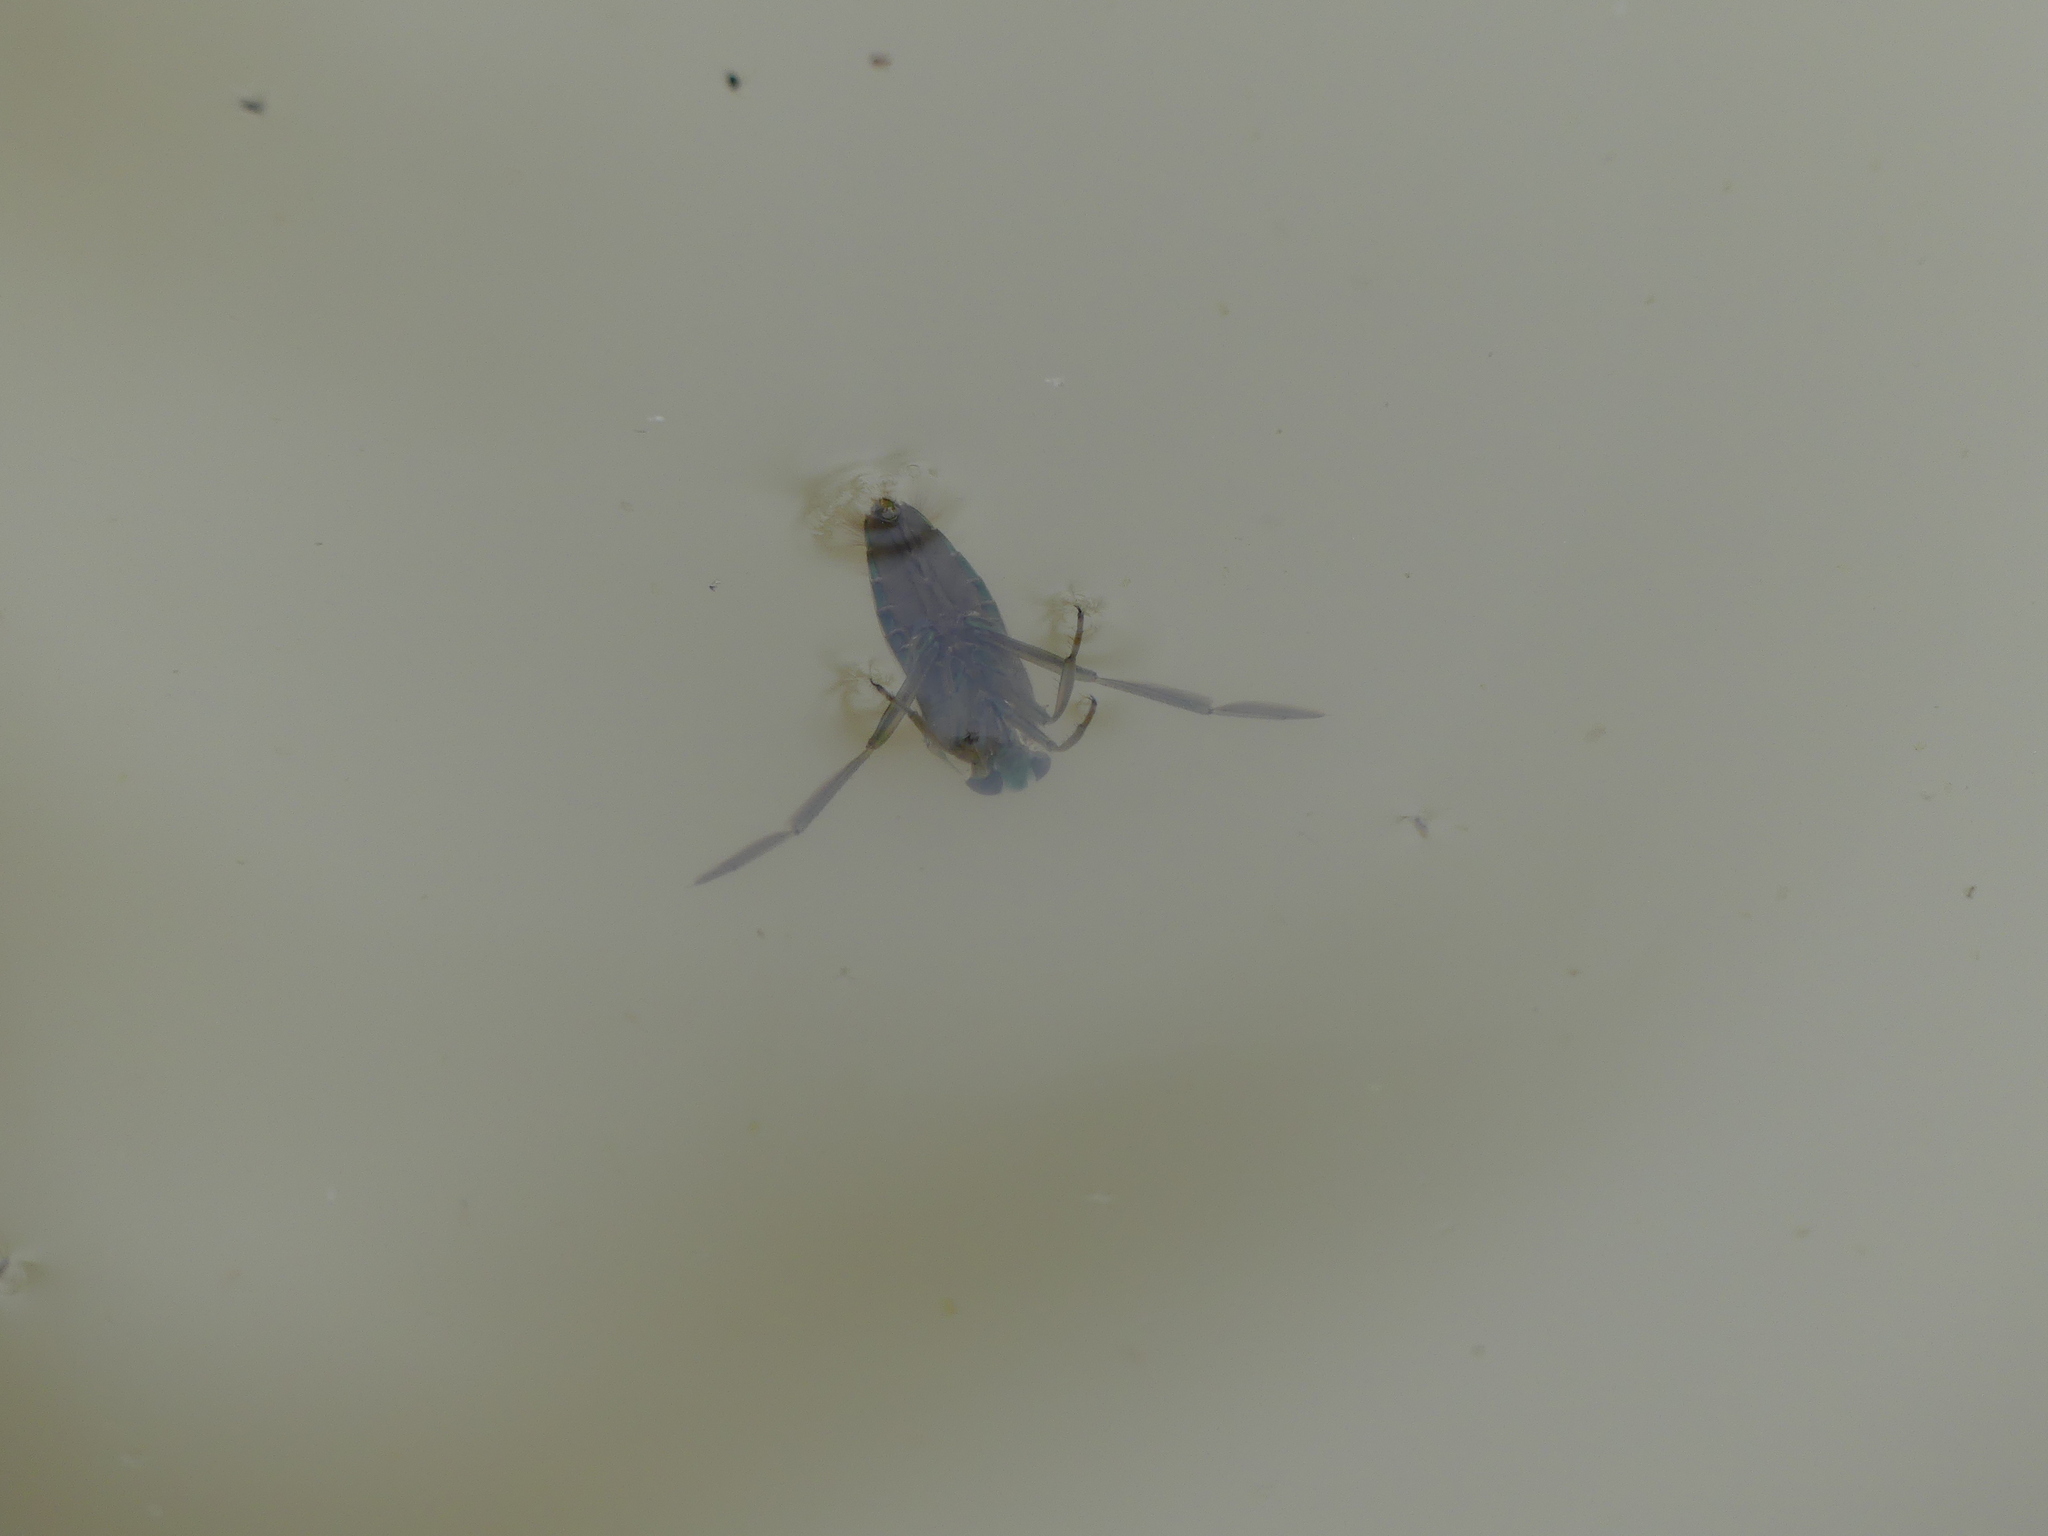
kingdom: Animalia
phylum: Arthropoda
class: Insecta
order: Hemiptera
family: Notonectidae
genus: Notonecta
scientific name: Notonecta
